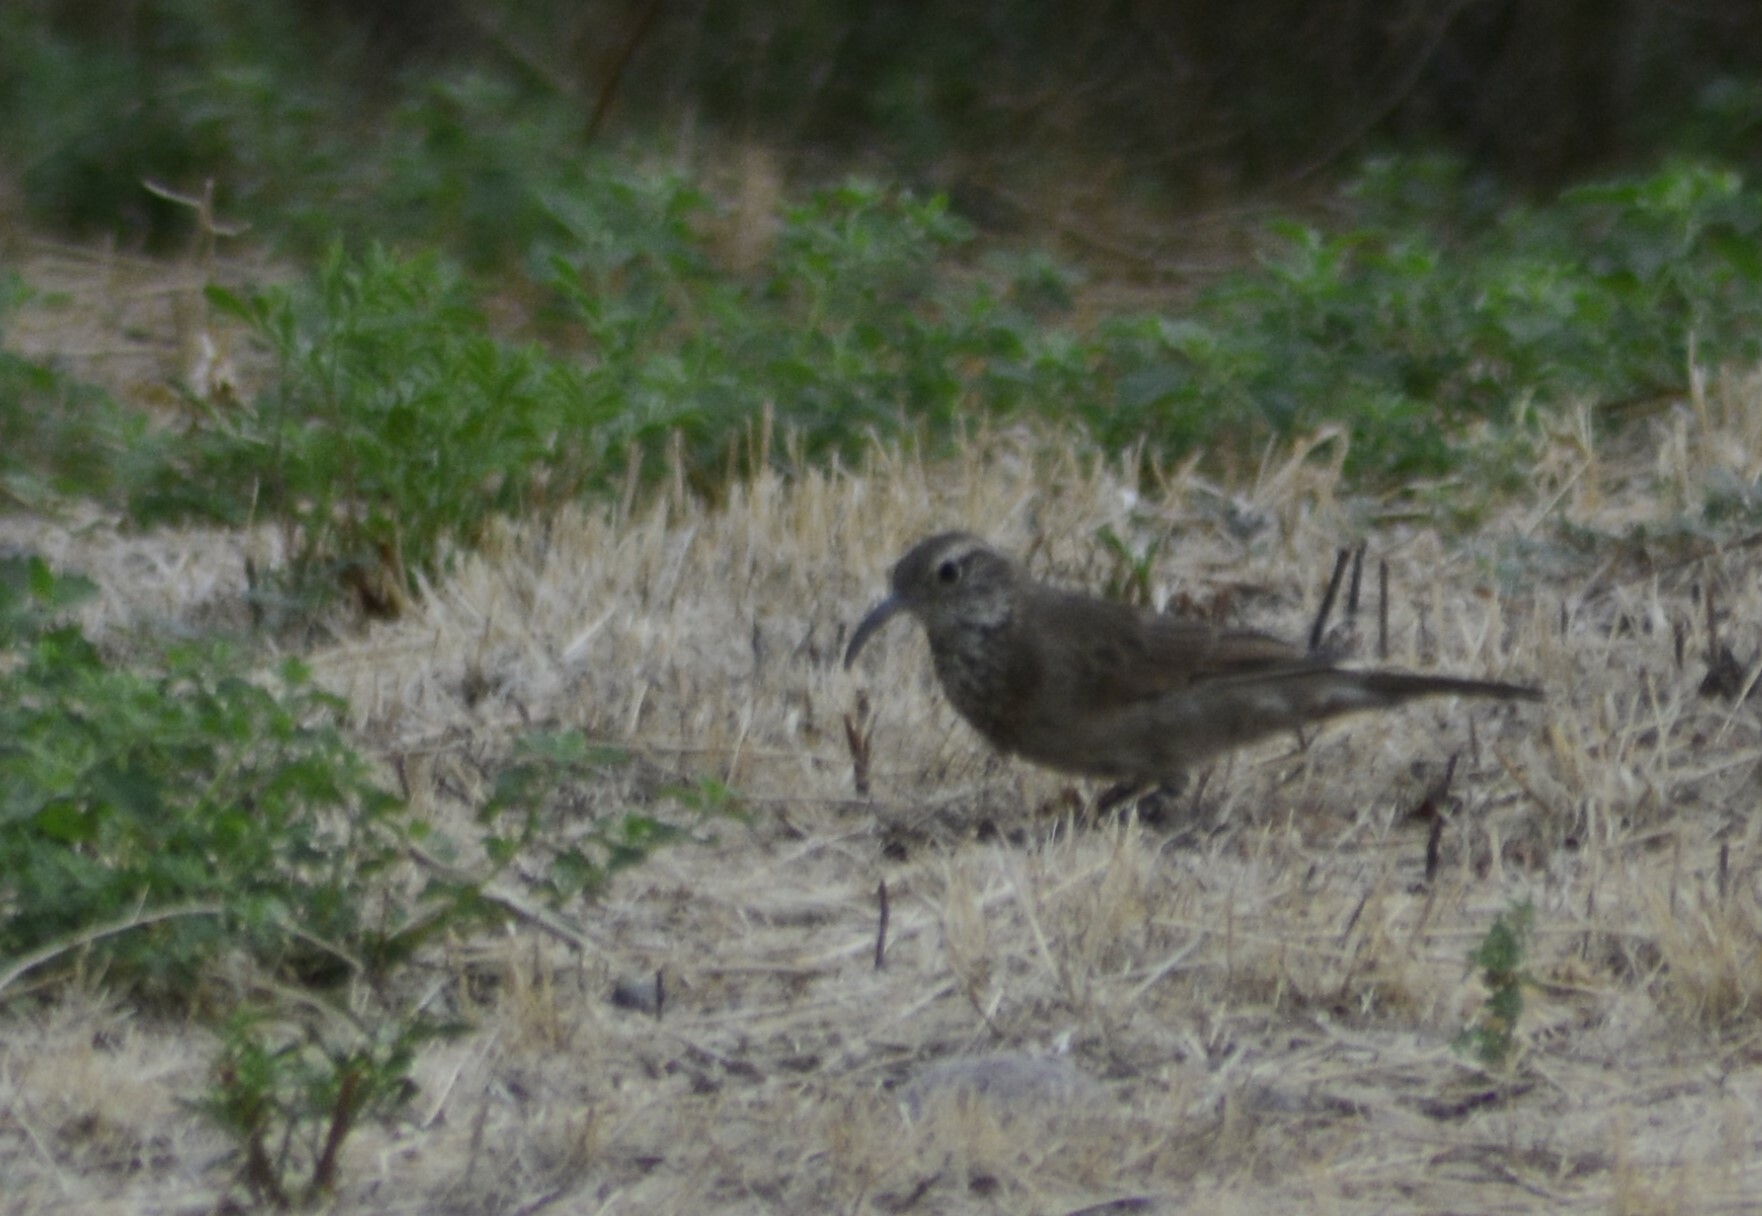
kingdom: Animalia
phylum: Chordata
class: Aves
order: Passeriformes
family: Furnariidae
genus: Upucerthia
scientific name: Upucerthia dumetaria
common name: Scale-throated earthcreeper
